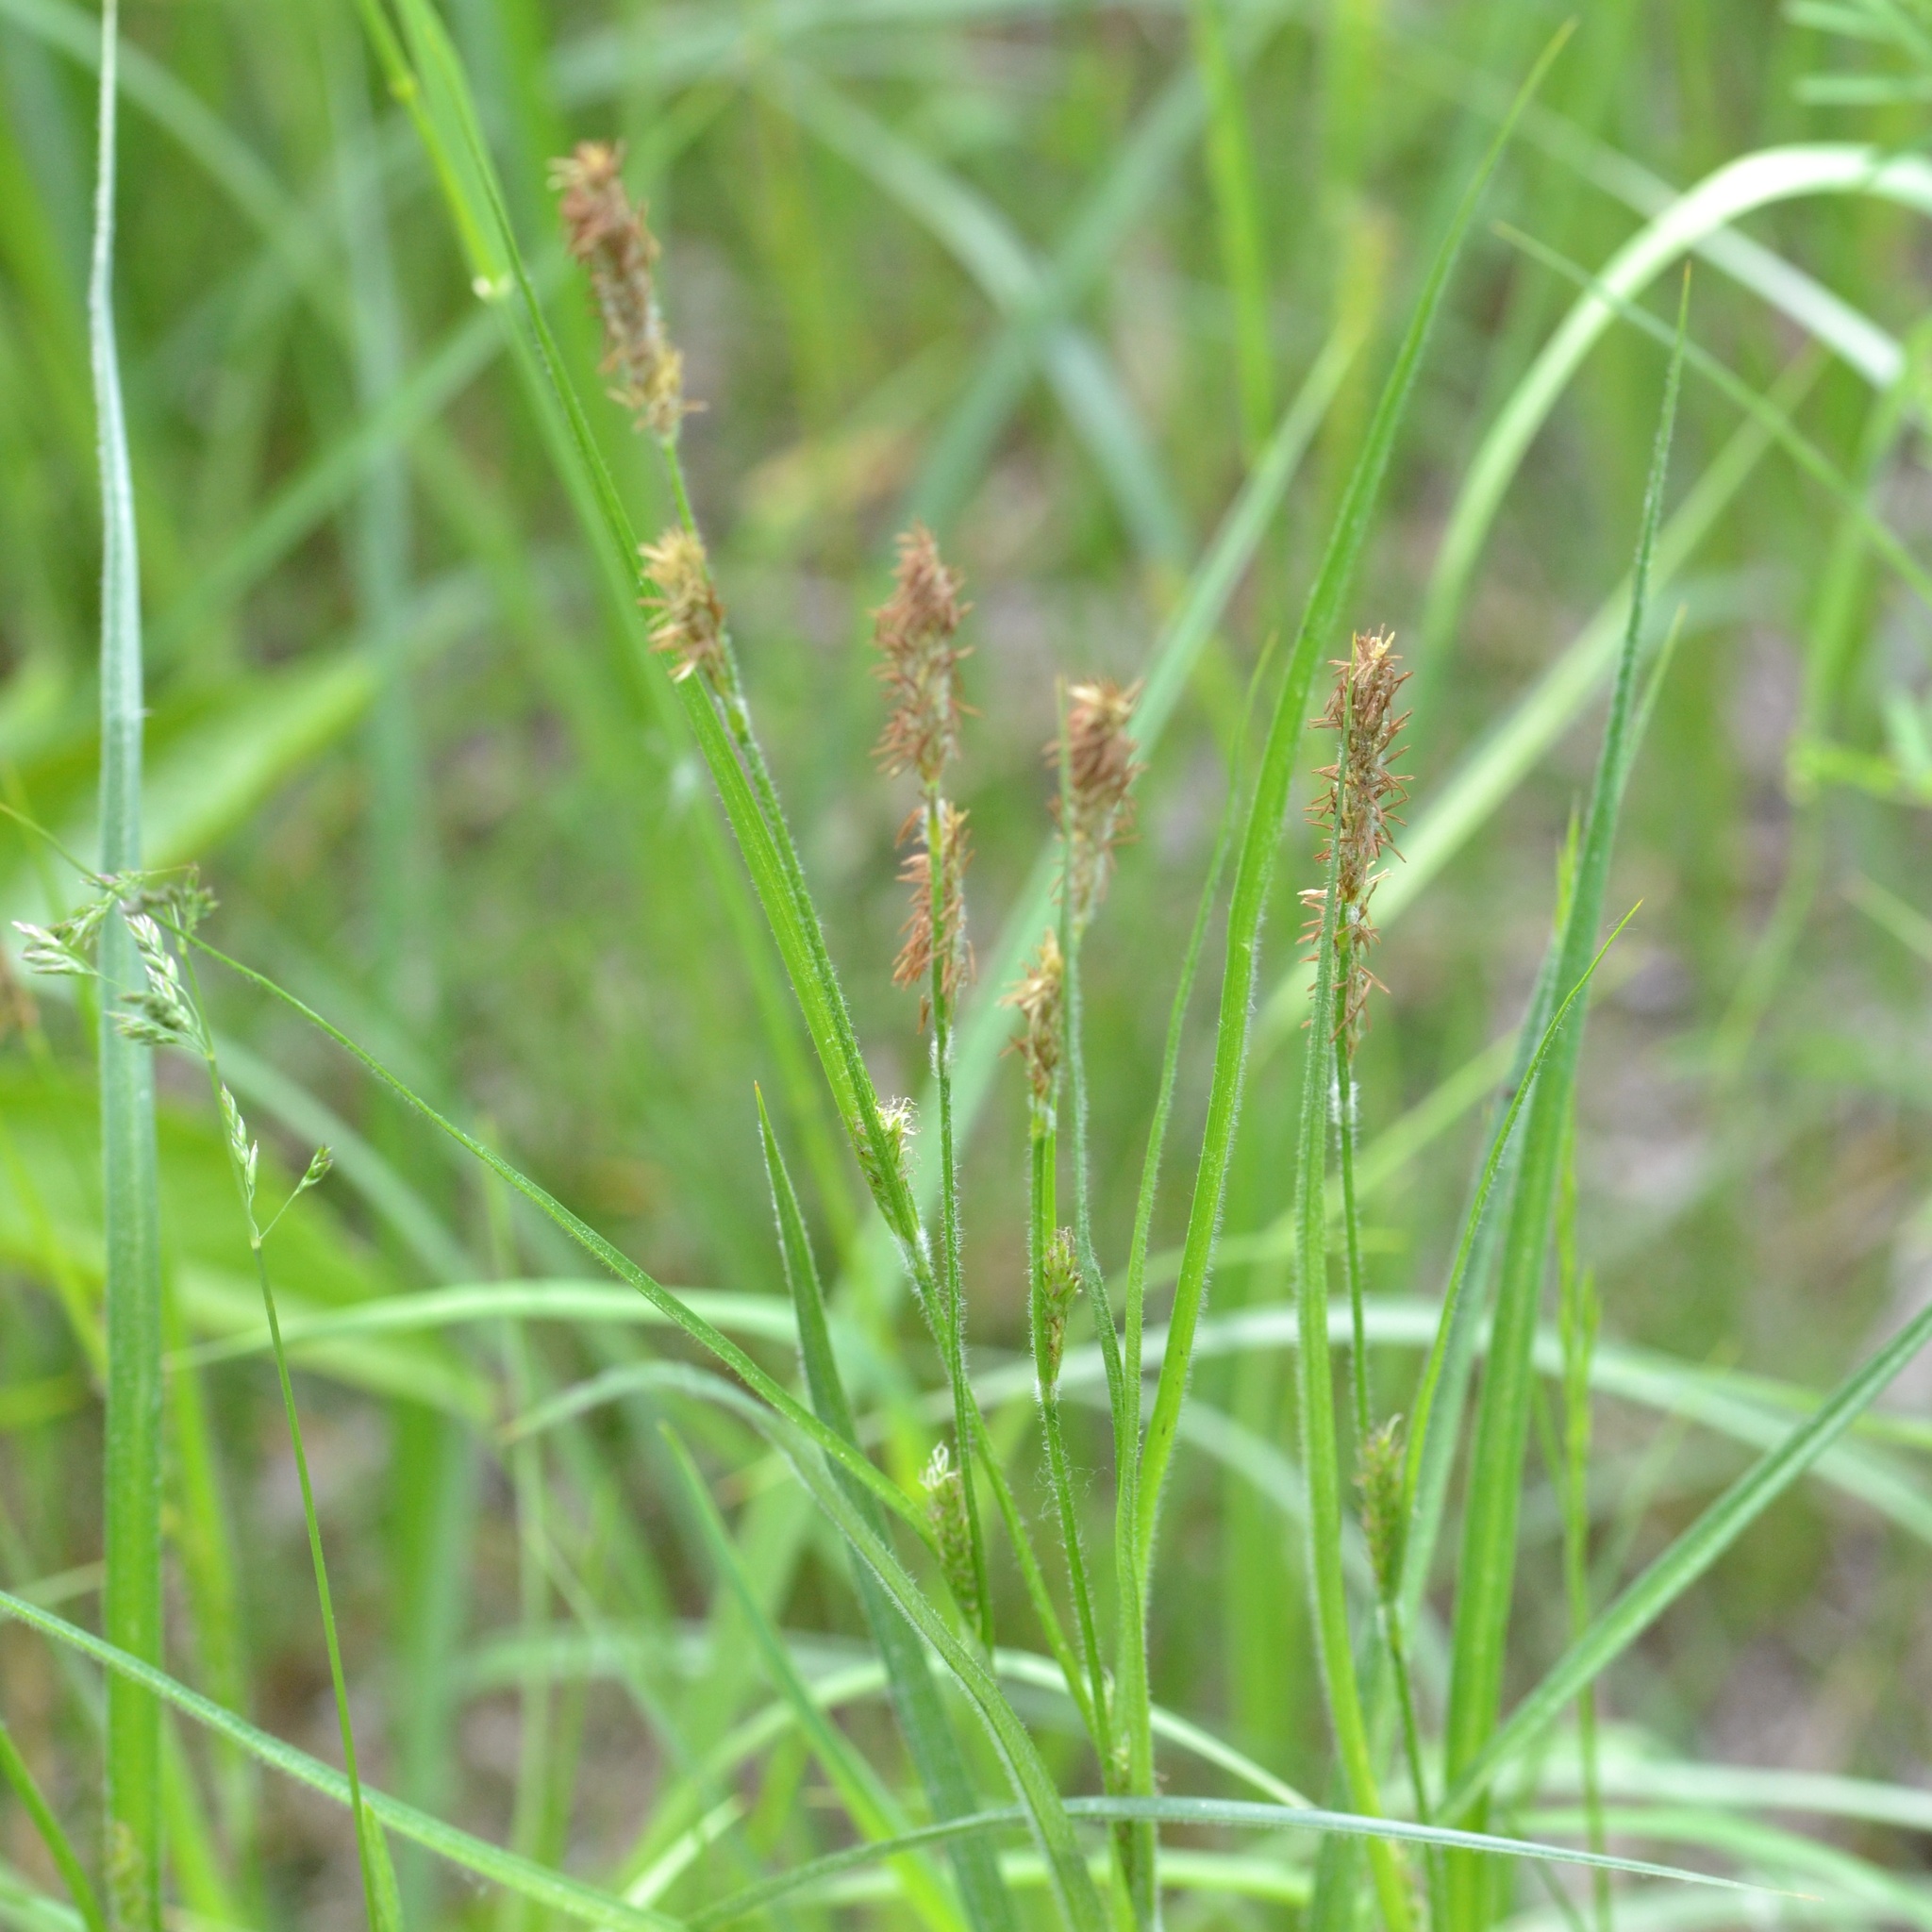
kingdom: Plantae
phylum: Tracheophyta
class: Liliopsida
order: Poales
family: Cyperaceae
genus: Carex
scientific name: Carex hirta
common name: Hairy sedge
